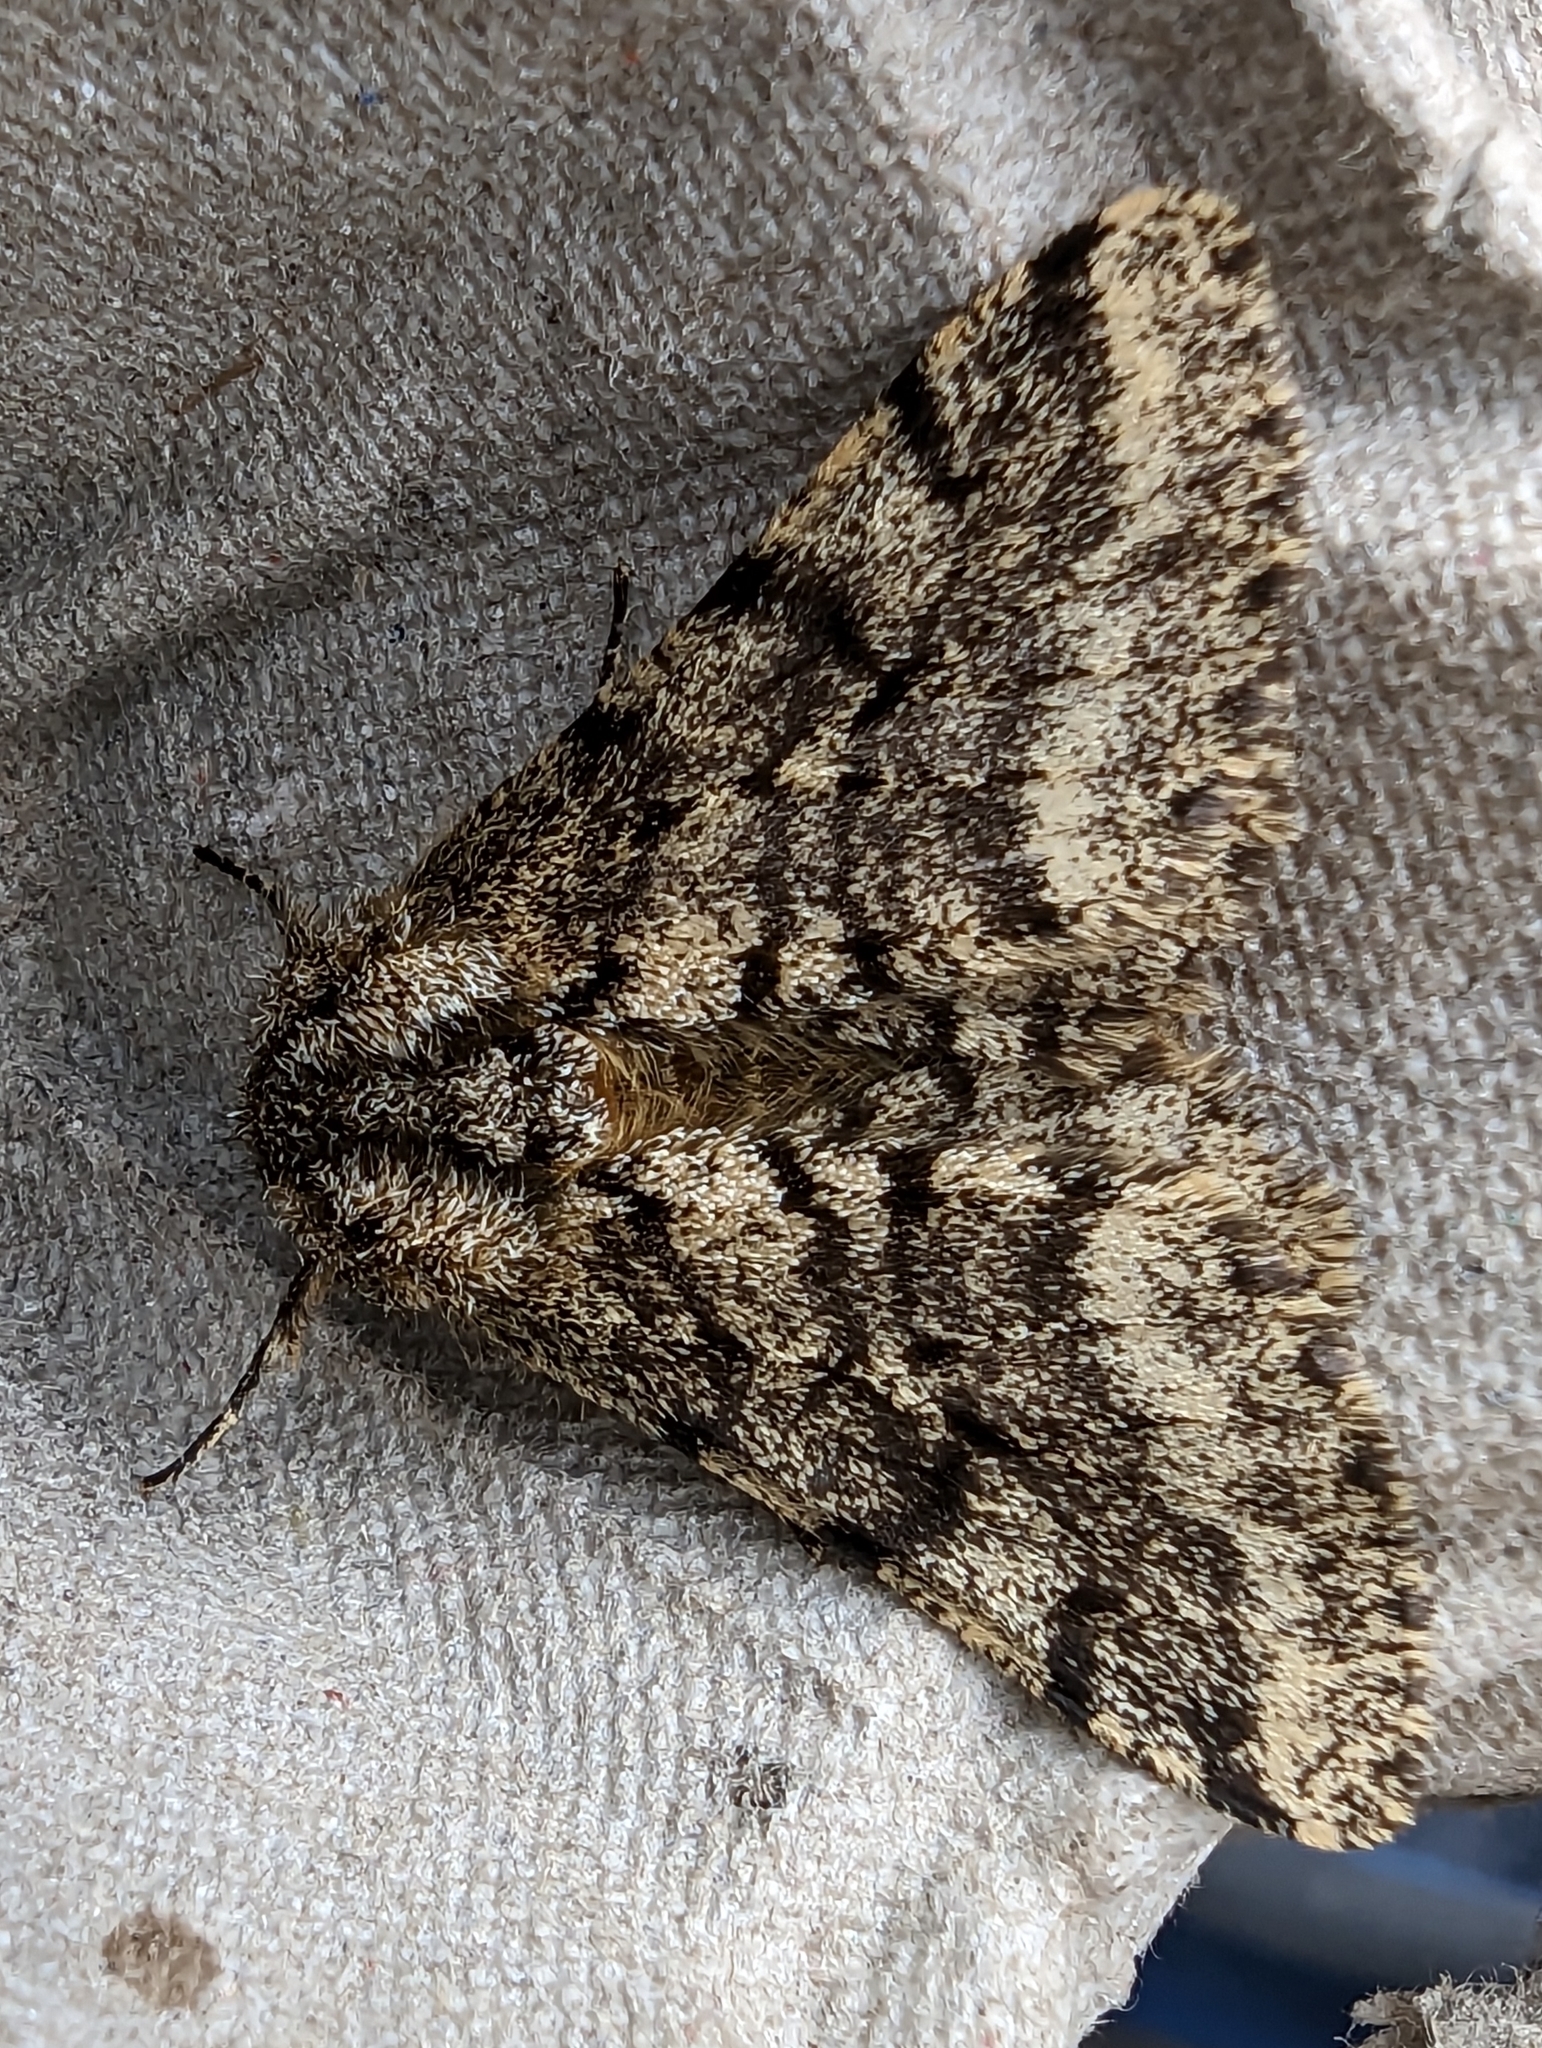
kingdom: Animalia
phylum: Arthropoda
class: Insecta
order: Lepidoptera
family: Geometridae
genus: Lycia
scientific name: Lycia hirtaria
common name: Brindled beauty
